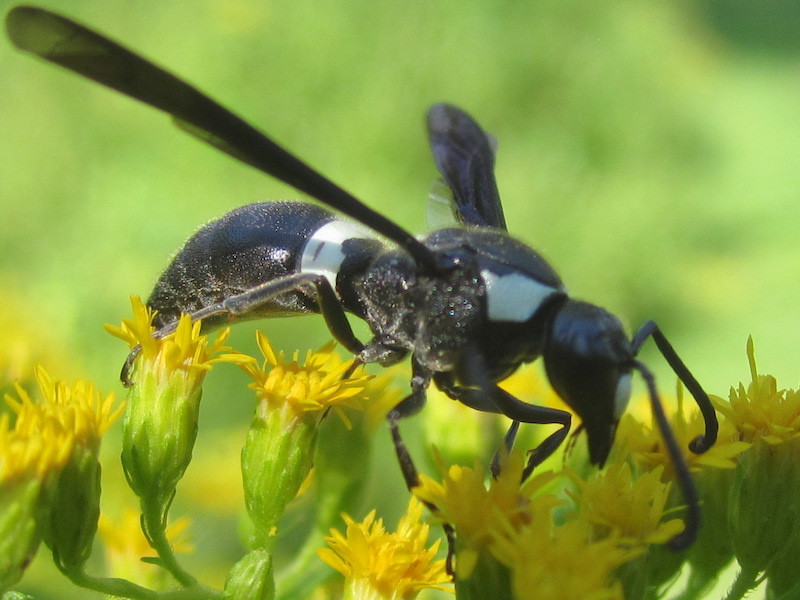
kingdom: Animalia
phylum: Arthropoda
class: Insecta
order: Hymenoptera
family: Eumenidae
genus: Monobia
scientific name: Monobia quadridens
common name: Four-toothed mason wasp
